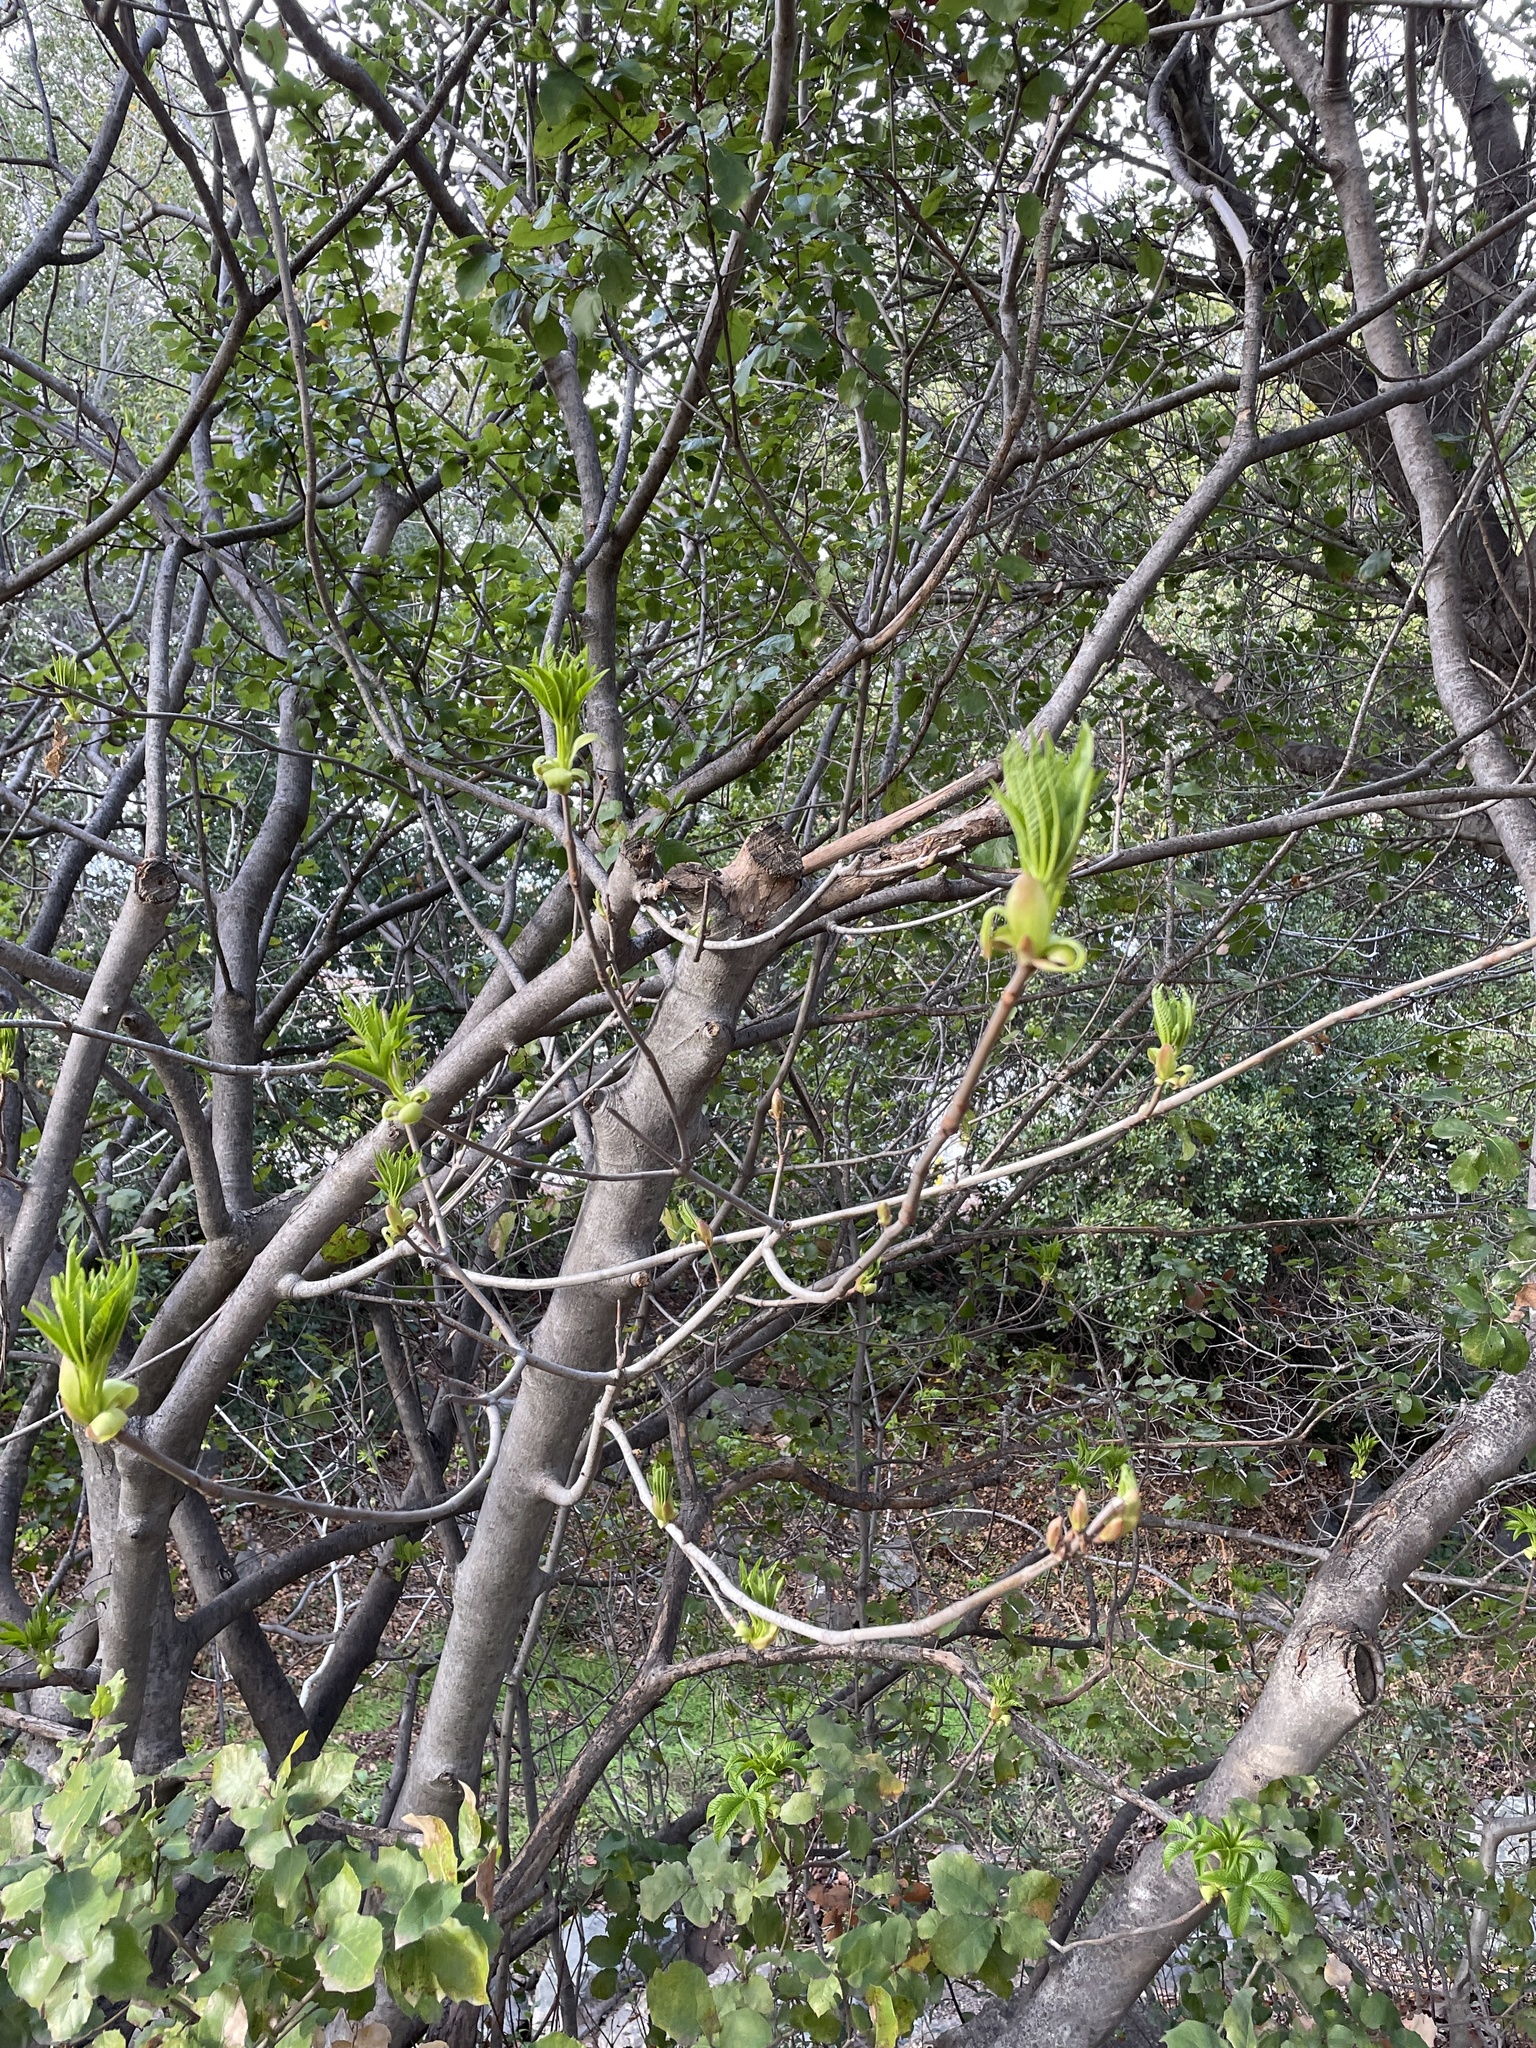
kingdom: Plantae
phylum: Tracheophyta
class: Magnoliopsida
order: Sapindales
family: Sapindaceae
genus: Aesculus
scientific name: Aesculus californica
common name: California buckeye
